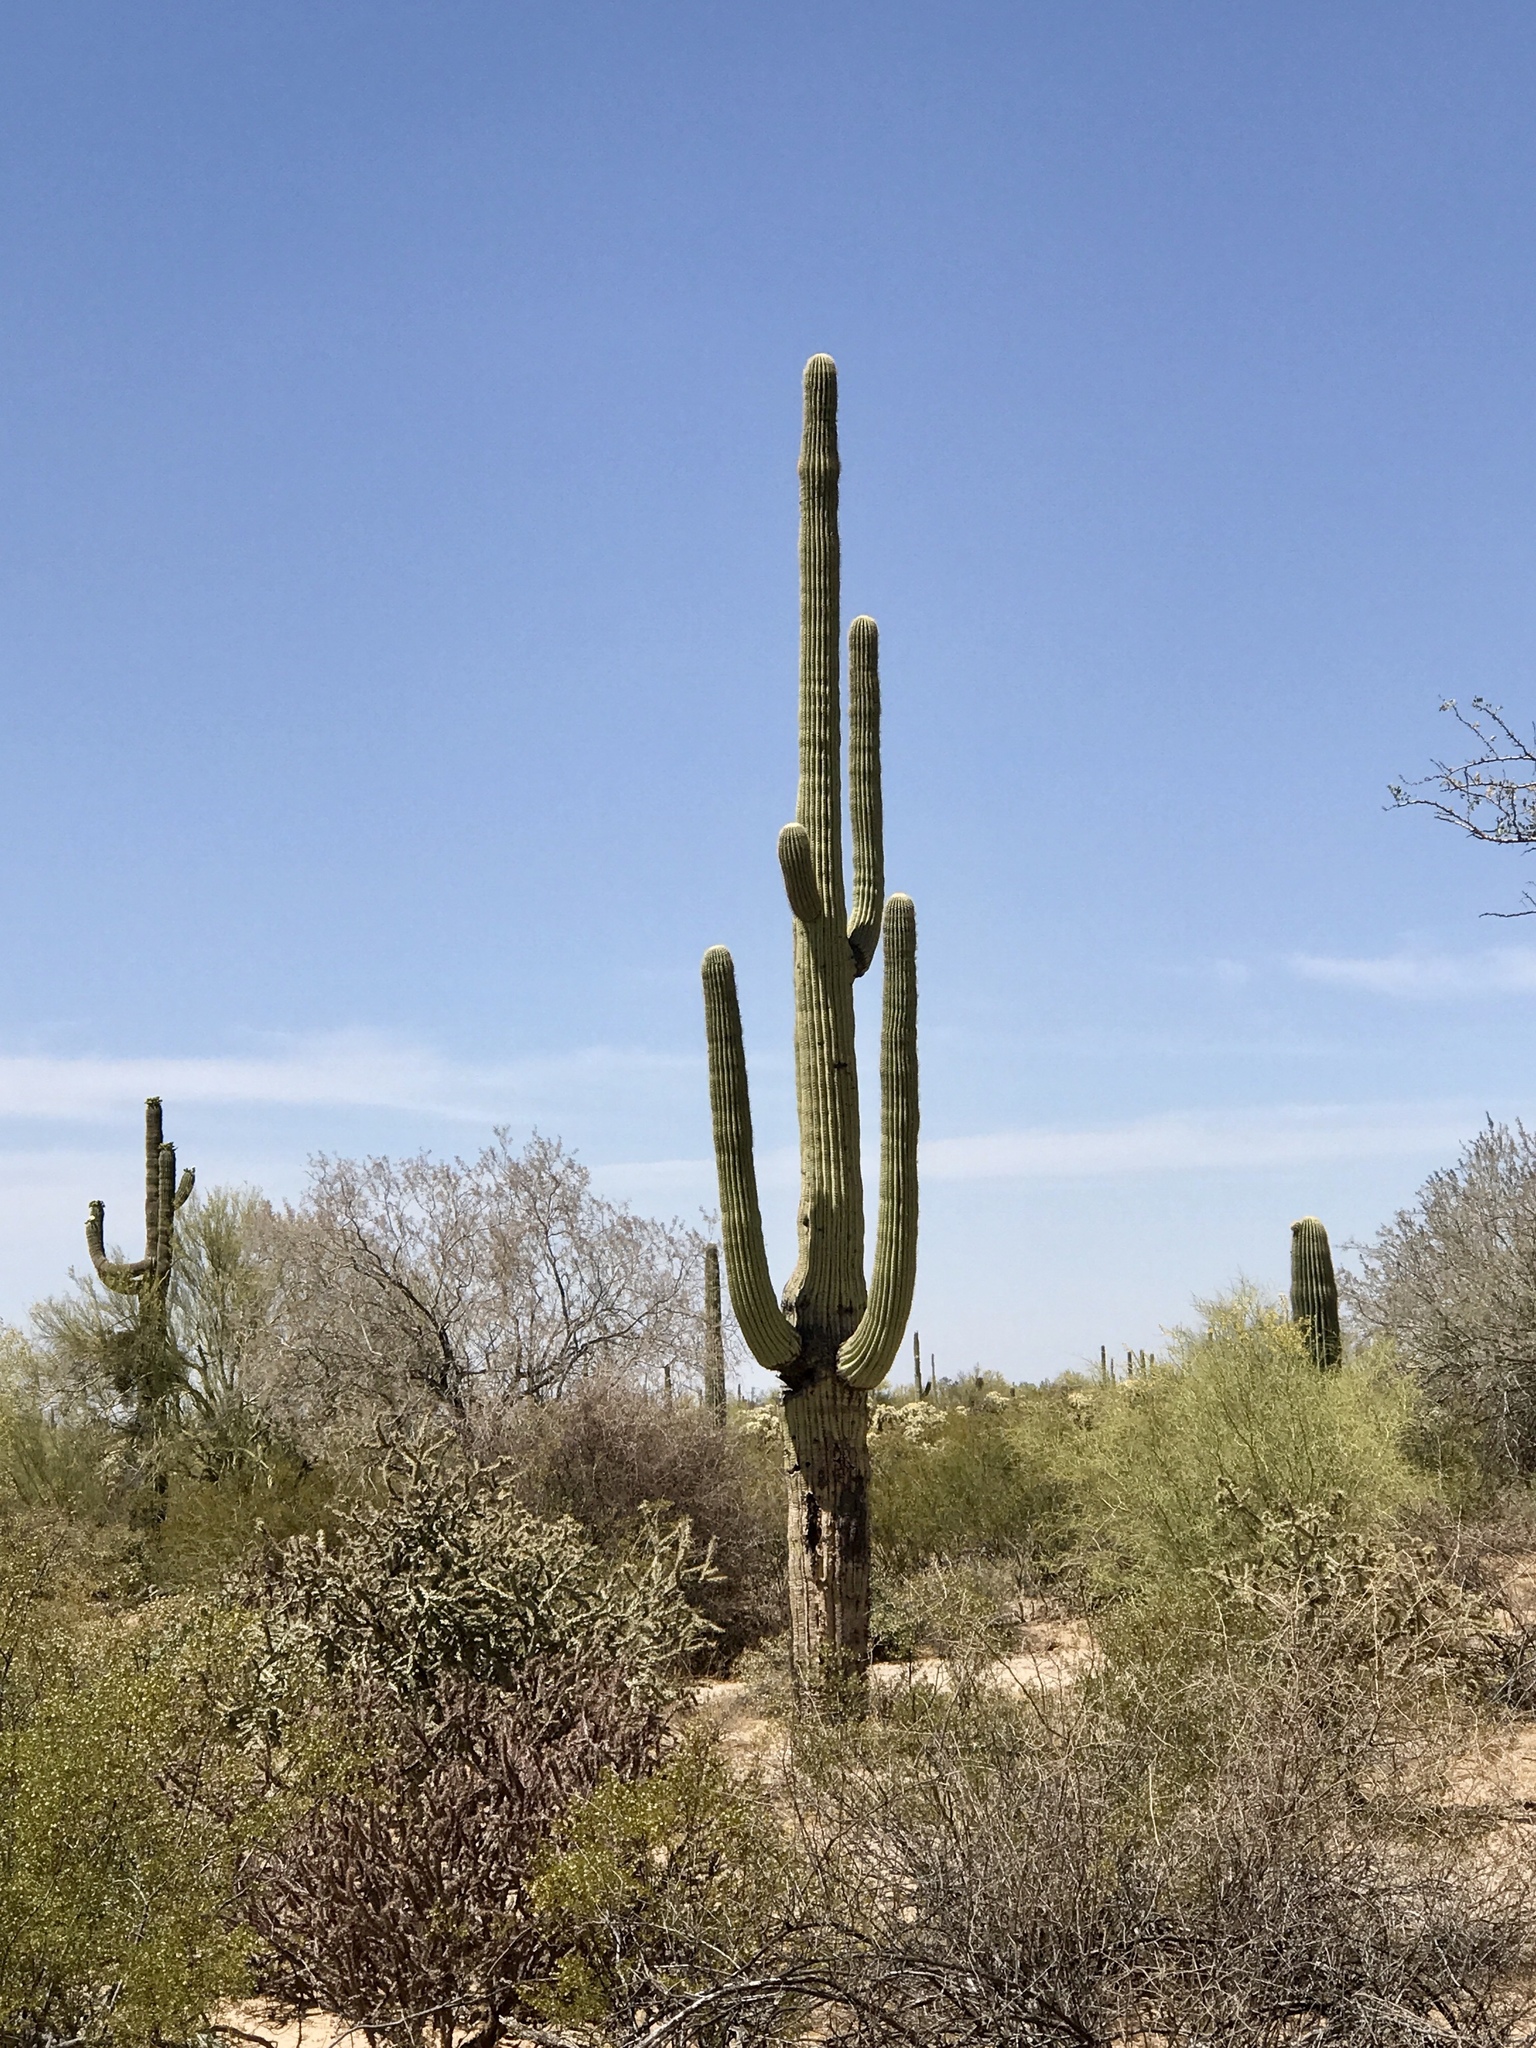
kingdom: Plantae
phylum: Tracheophyta
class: Magnoliopsida
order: Caryophyllales
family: Cactaceae
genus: Carnegiea
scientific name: Carnegiea gigantea
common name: Saguaro
